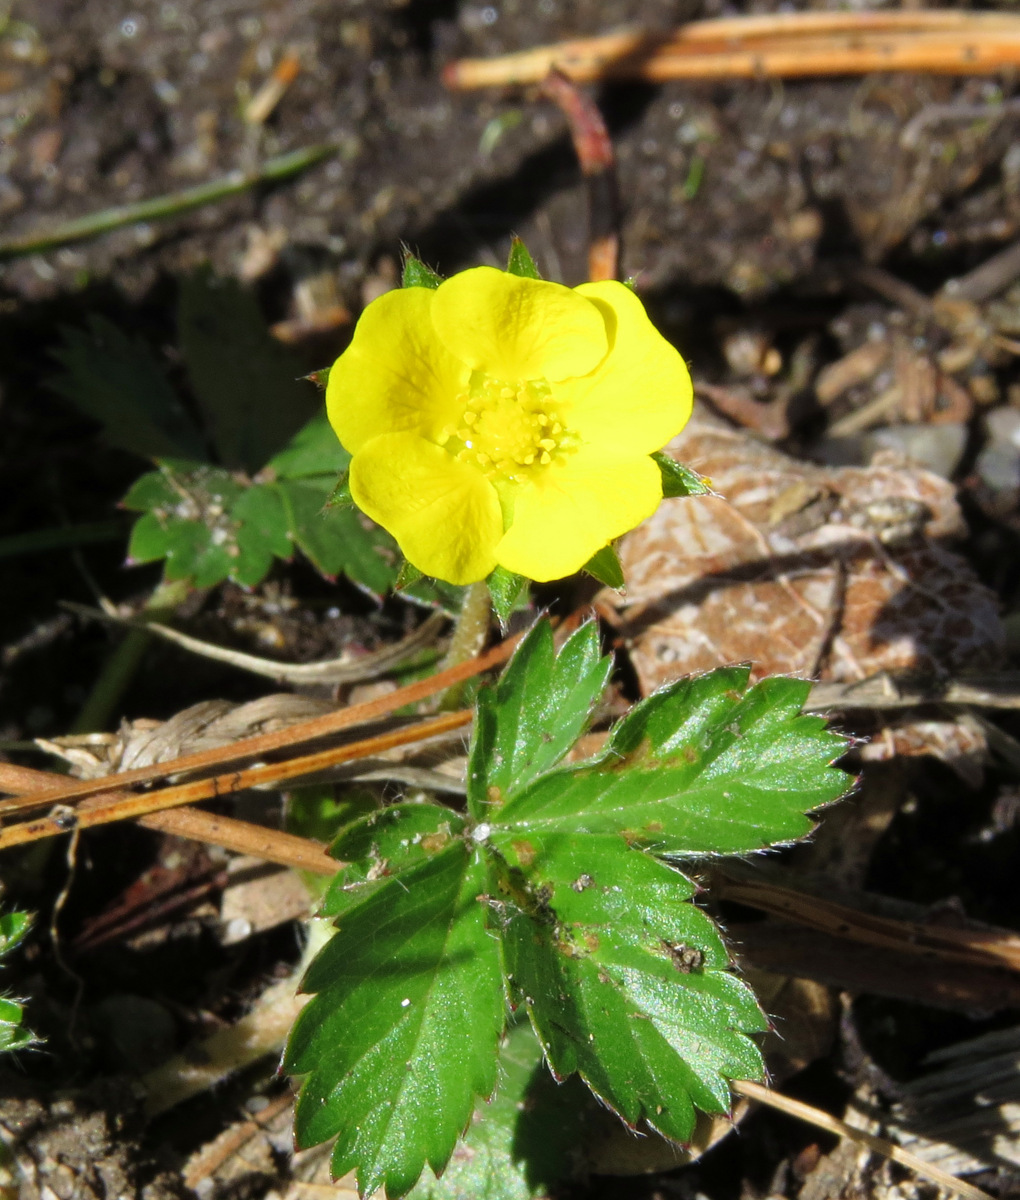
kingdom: Plantae
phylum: Tracheophyta
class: Magnoliopsida
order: Rosales
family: Rosaceae
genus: Potentilla
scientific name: Potentilla simplex
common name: Old field cinquefoil
